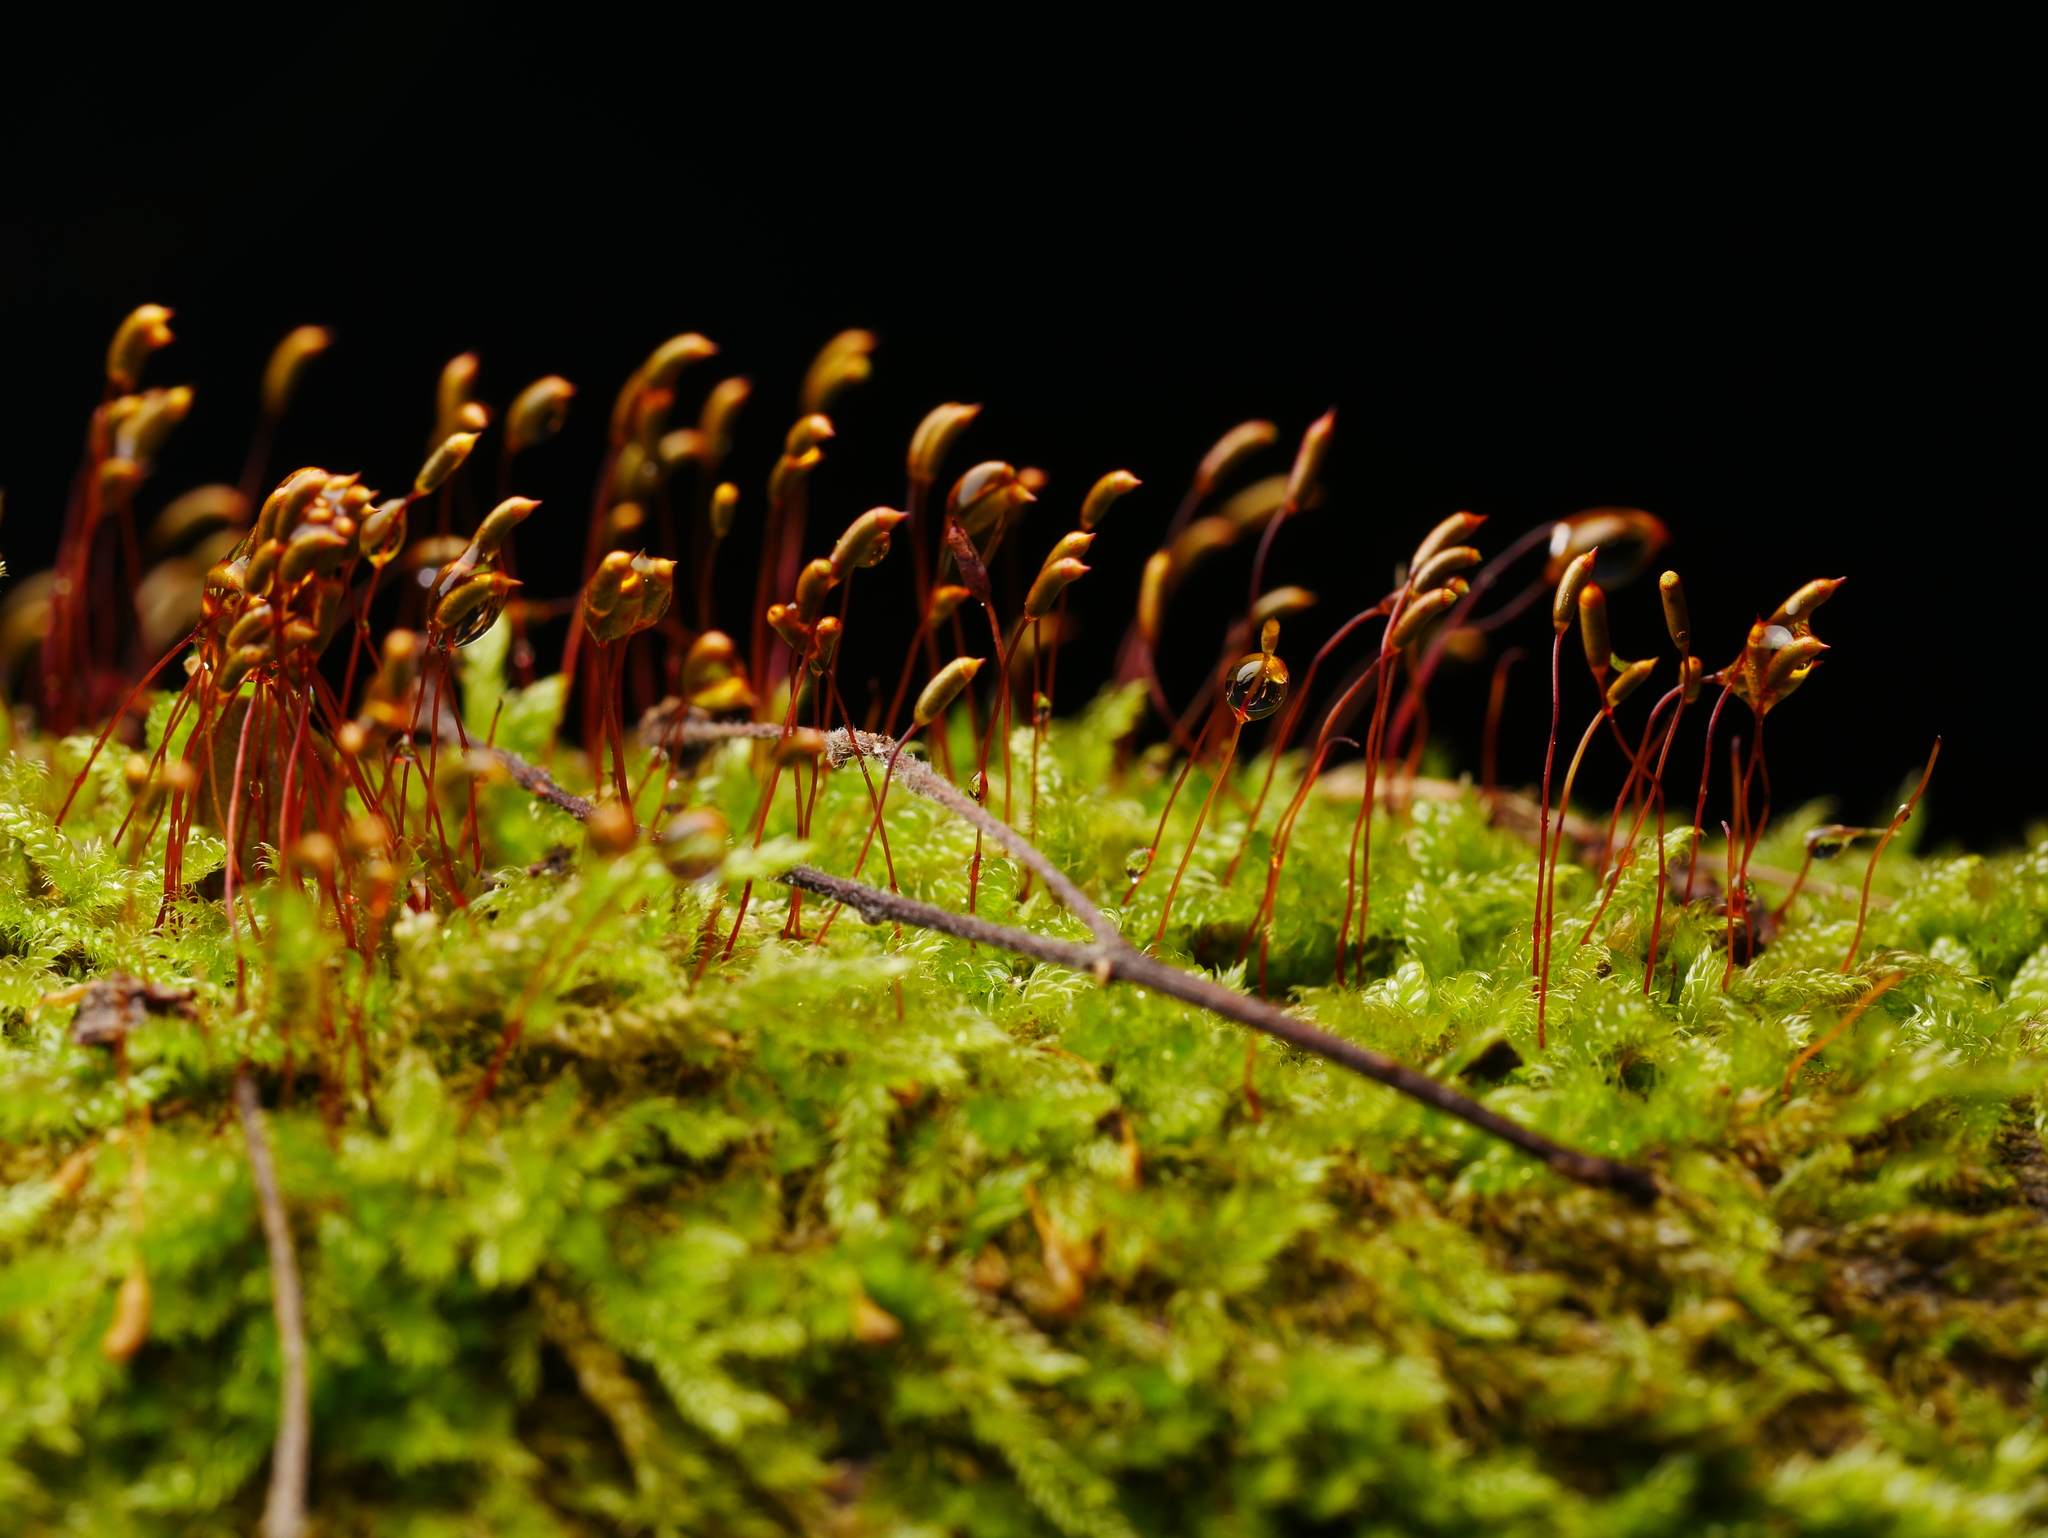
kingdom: Plantae
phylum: Bryophyta
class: Bryopsida
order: Hypnales
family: Hypnaceae
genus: Hypnum
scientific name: Hypnum cupressiforme
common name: Cypress-leaved plait-moss
